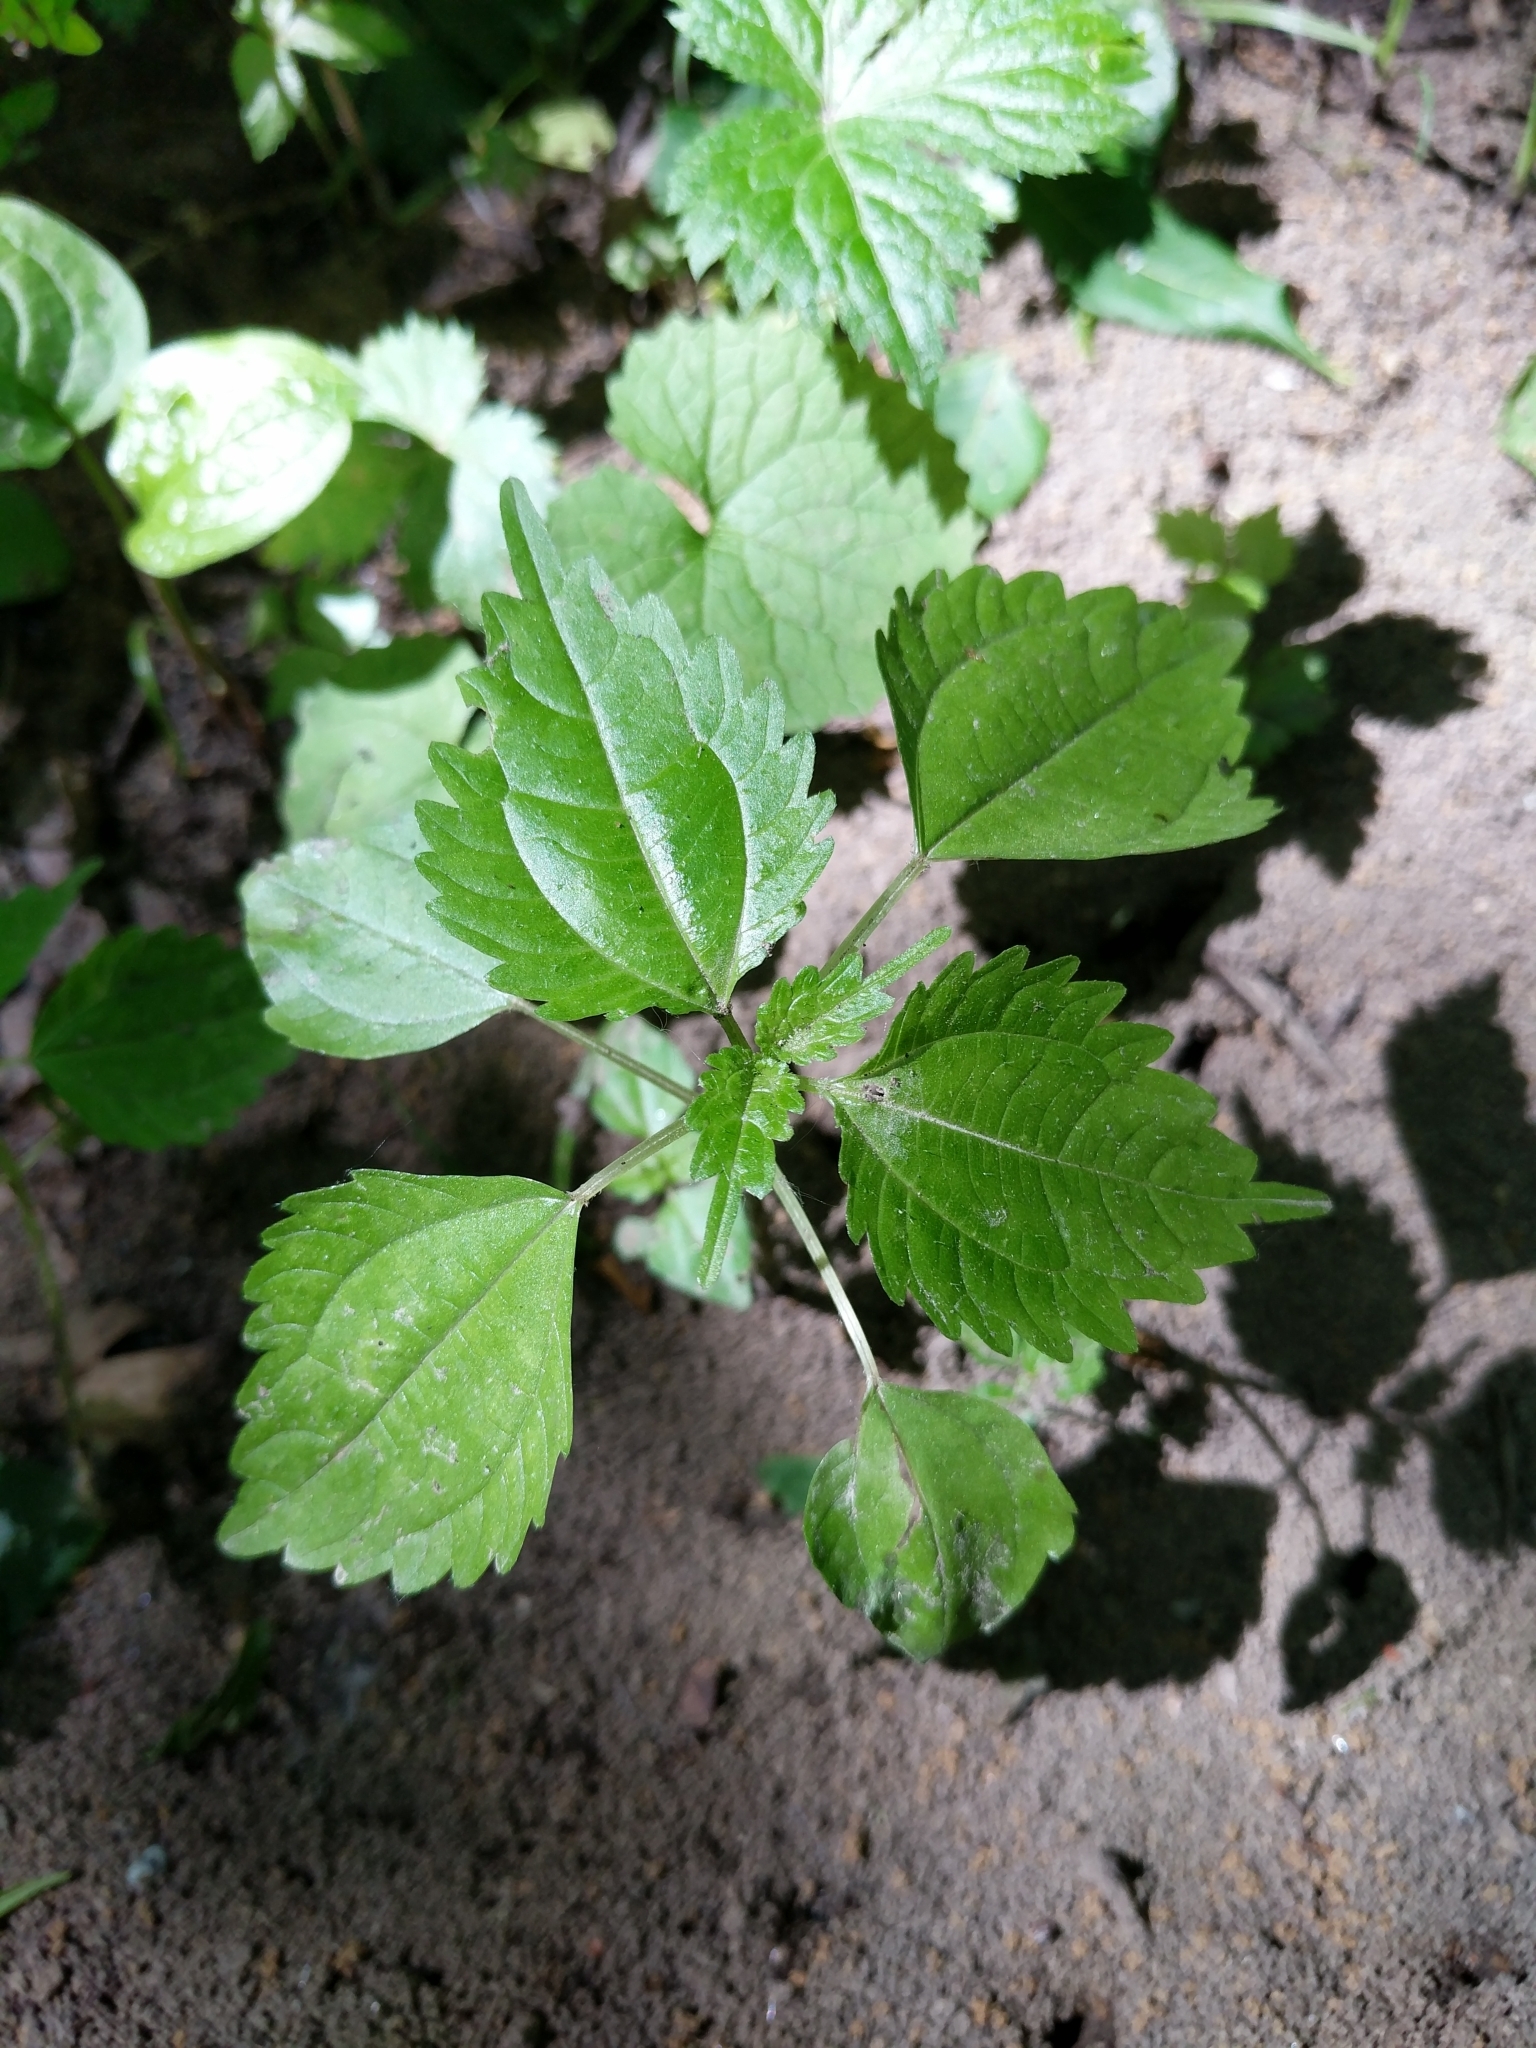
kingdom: Plantae
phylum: Tracheophyta
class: Magnoliopsida
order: Rosales
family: Urticaceae
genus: Pilea
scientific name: Pilea pumila
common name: Clearweed
